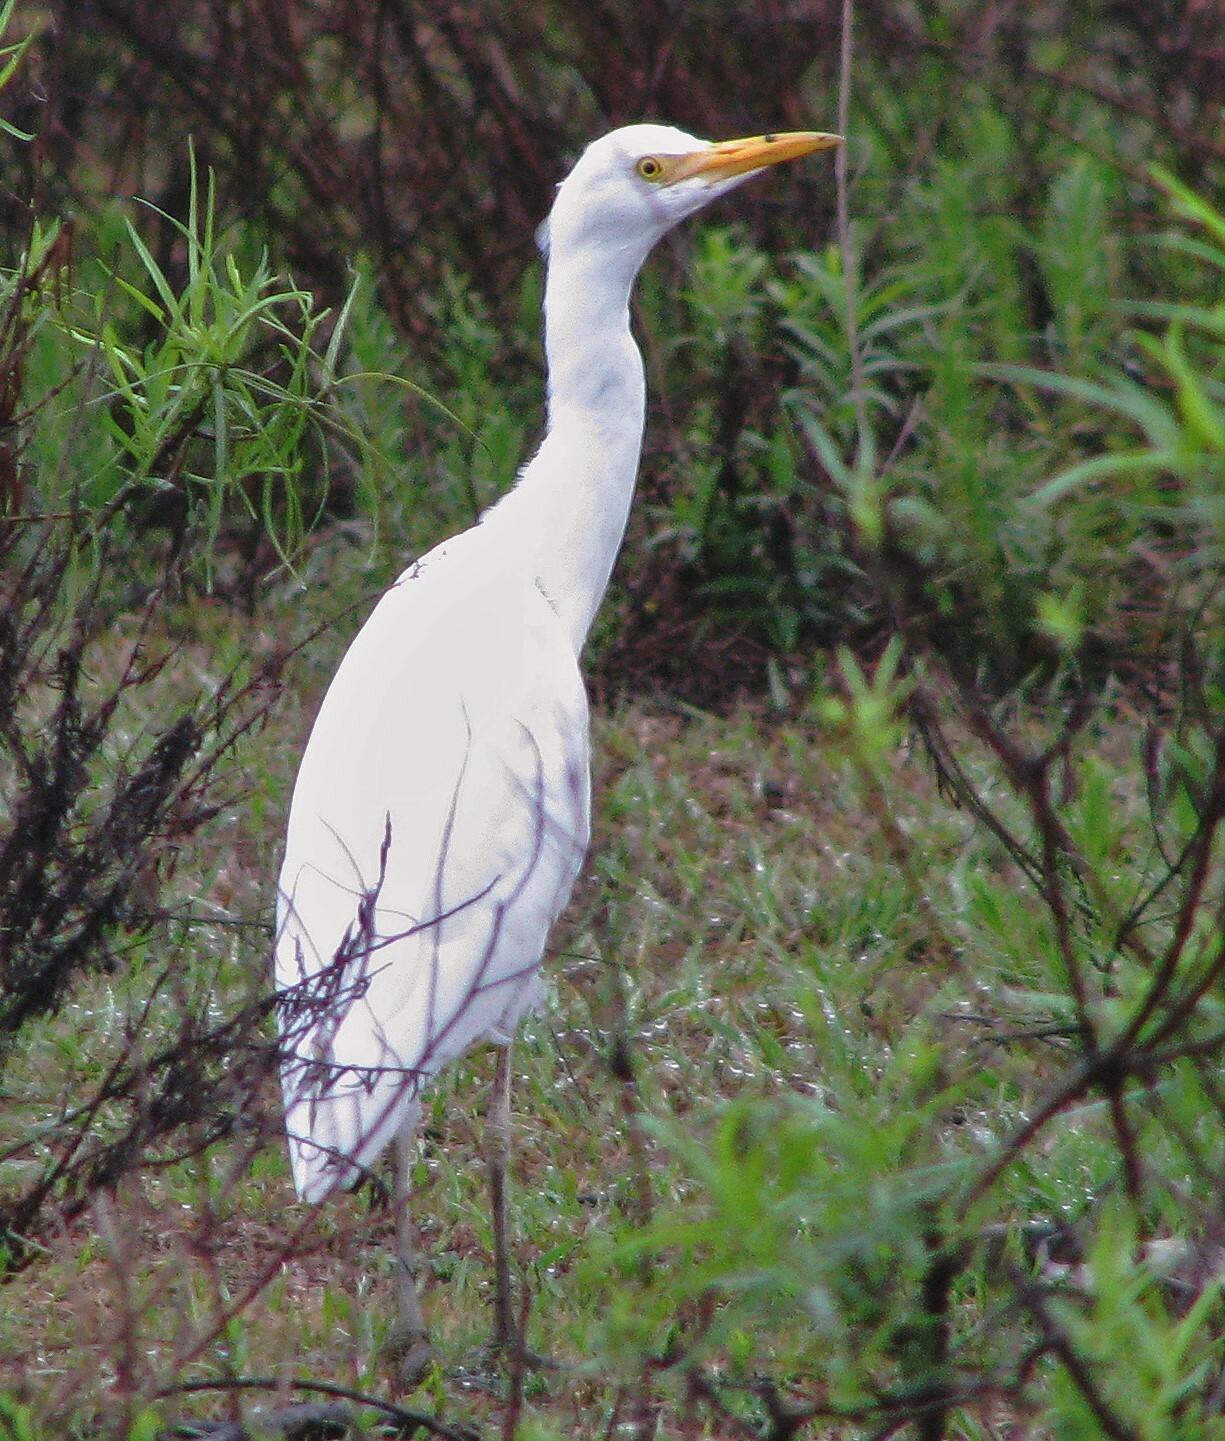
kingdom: Animalia
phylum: Chordata
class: Aves
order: Pelecaniformes
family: Ardeidae
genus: Bubulcus
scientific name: Bubulcus ibis
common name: Cattle egret
